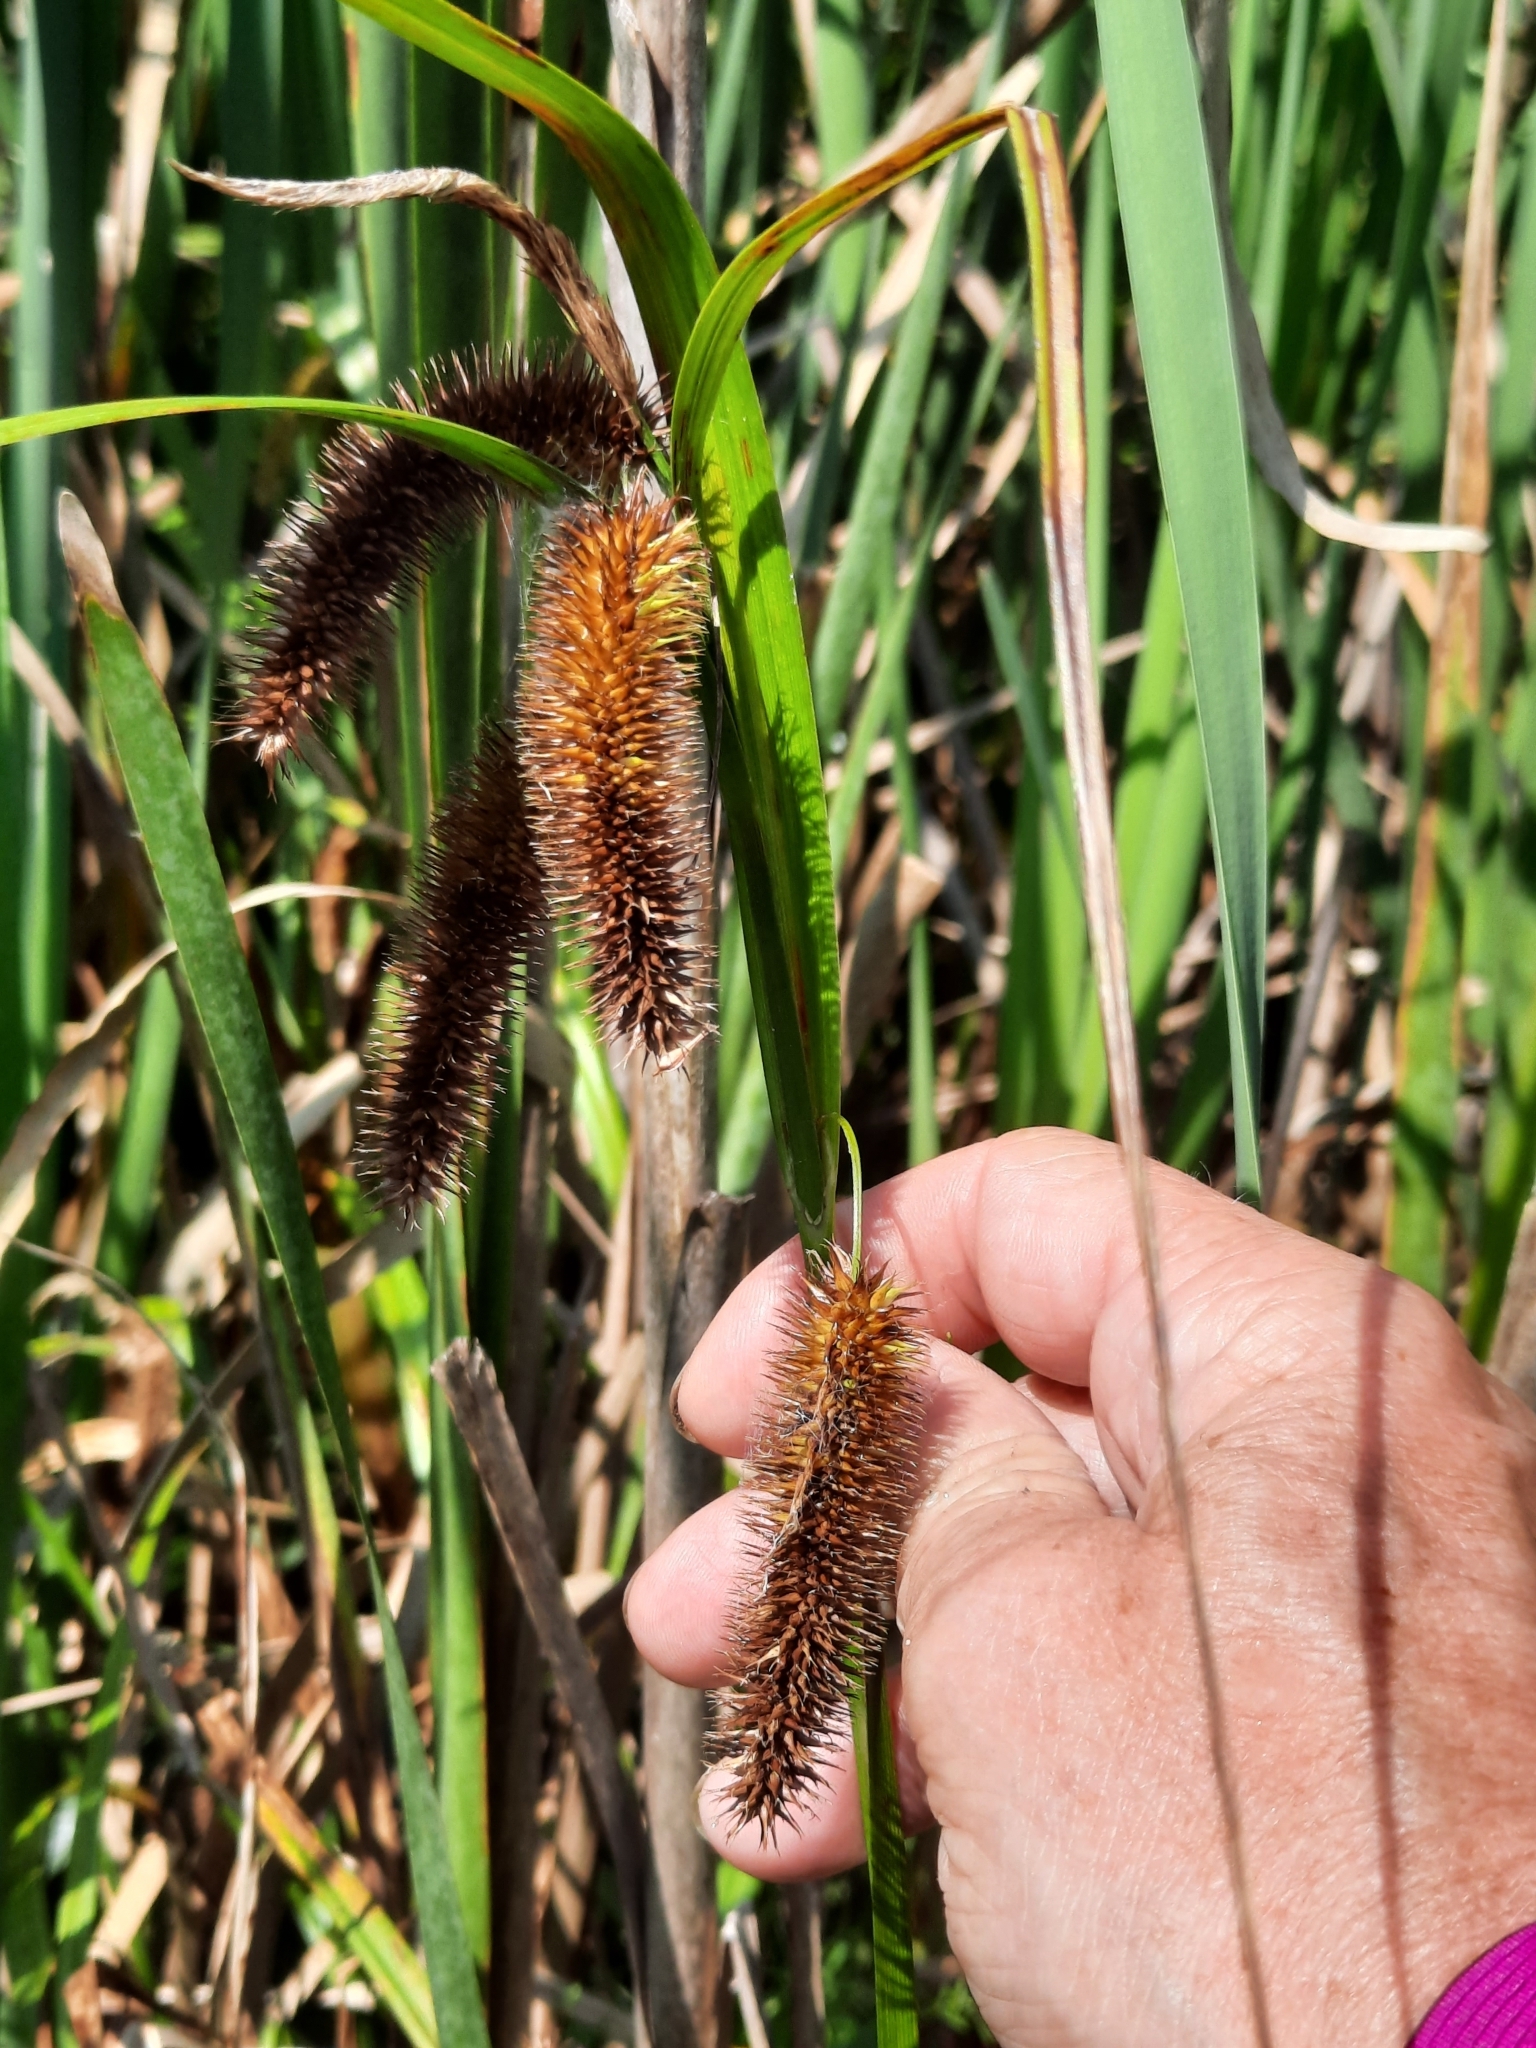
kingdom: Plantae
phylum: Tracheophyta
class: Liliopsida
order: Poales
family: Cyperaceae
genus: Carex
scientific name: Carex comosa
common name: Bristly sedge
